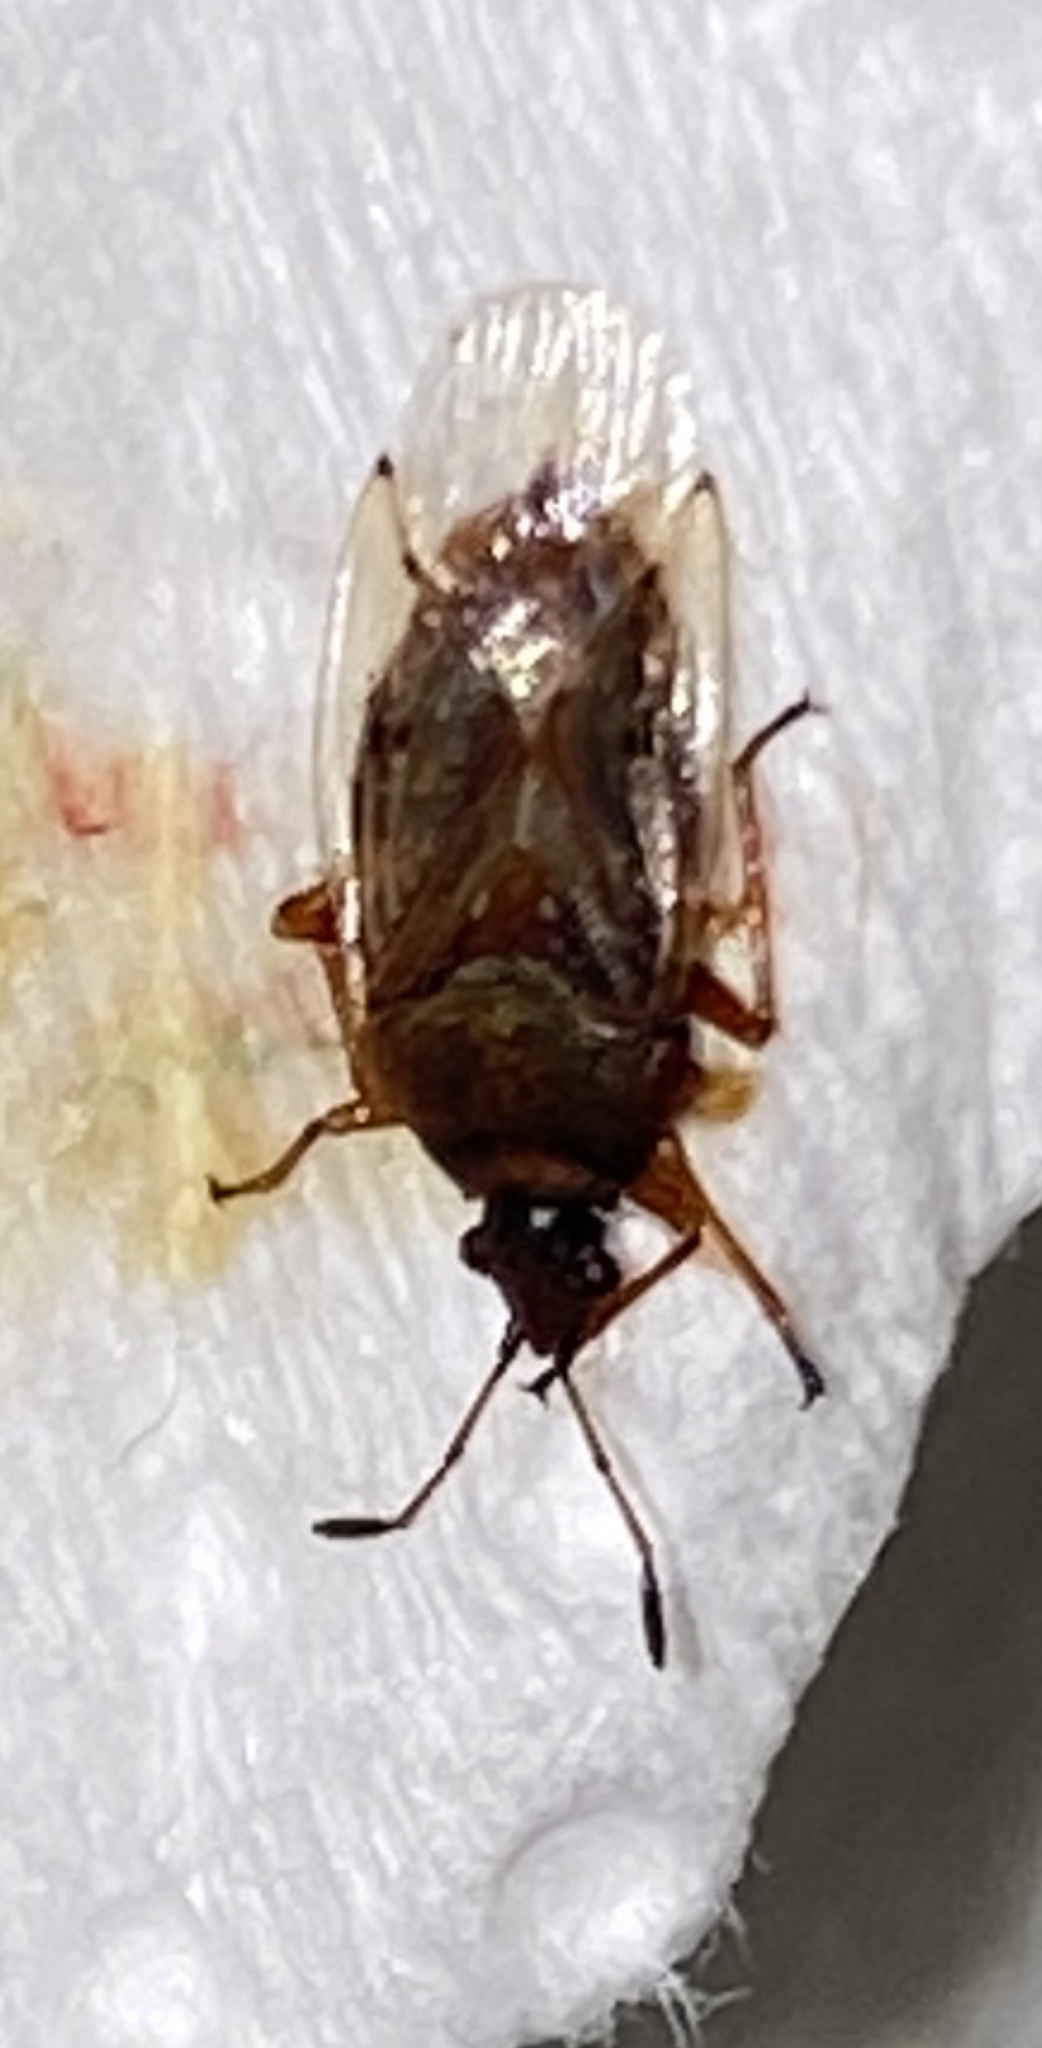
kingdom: Animalia
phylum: Arthropoda
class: Insecta
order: Hemiptera
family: Lygaeidae
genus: Kleidocerys
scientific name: Kleidocerys resedae
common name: Birch catkin bug
